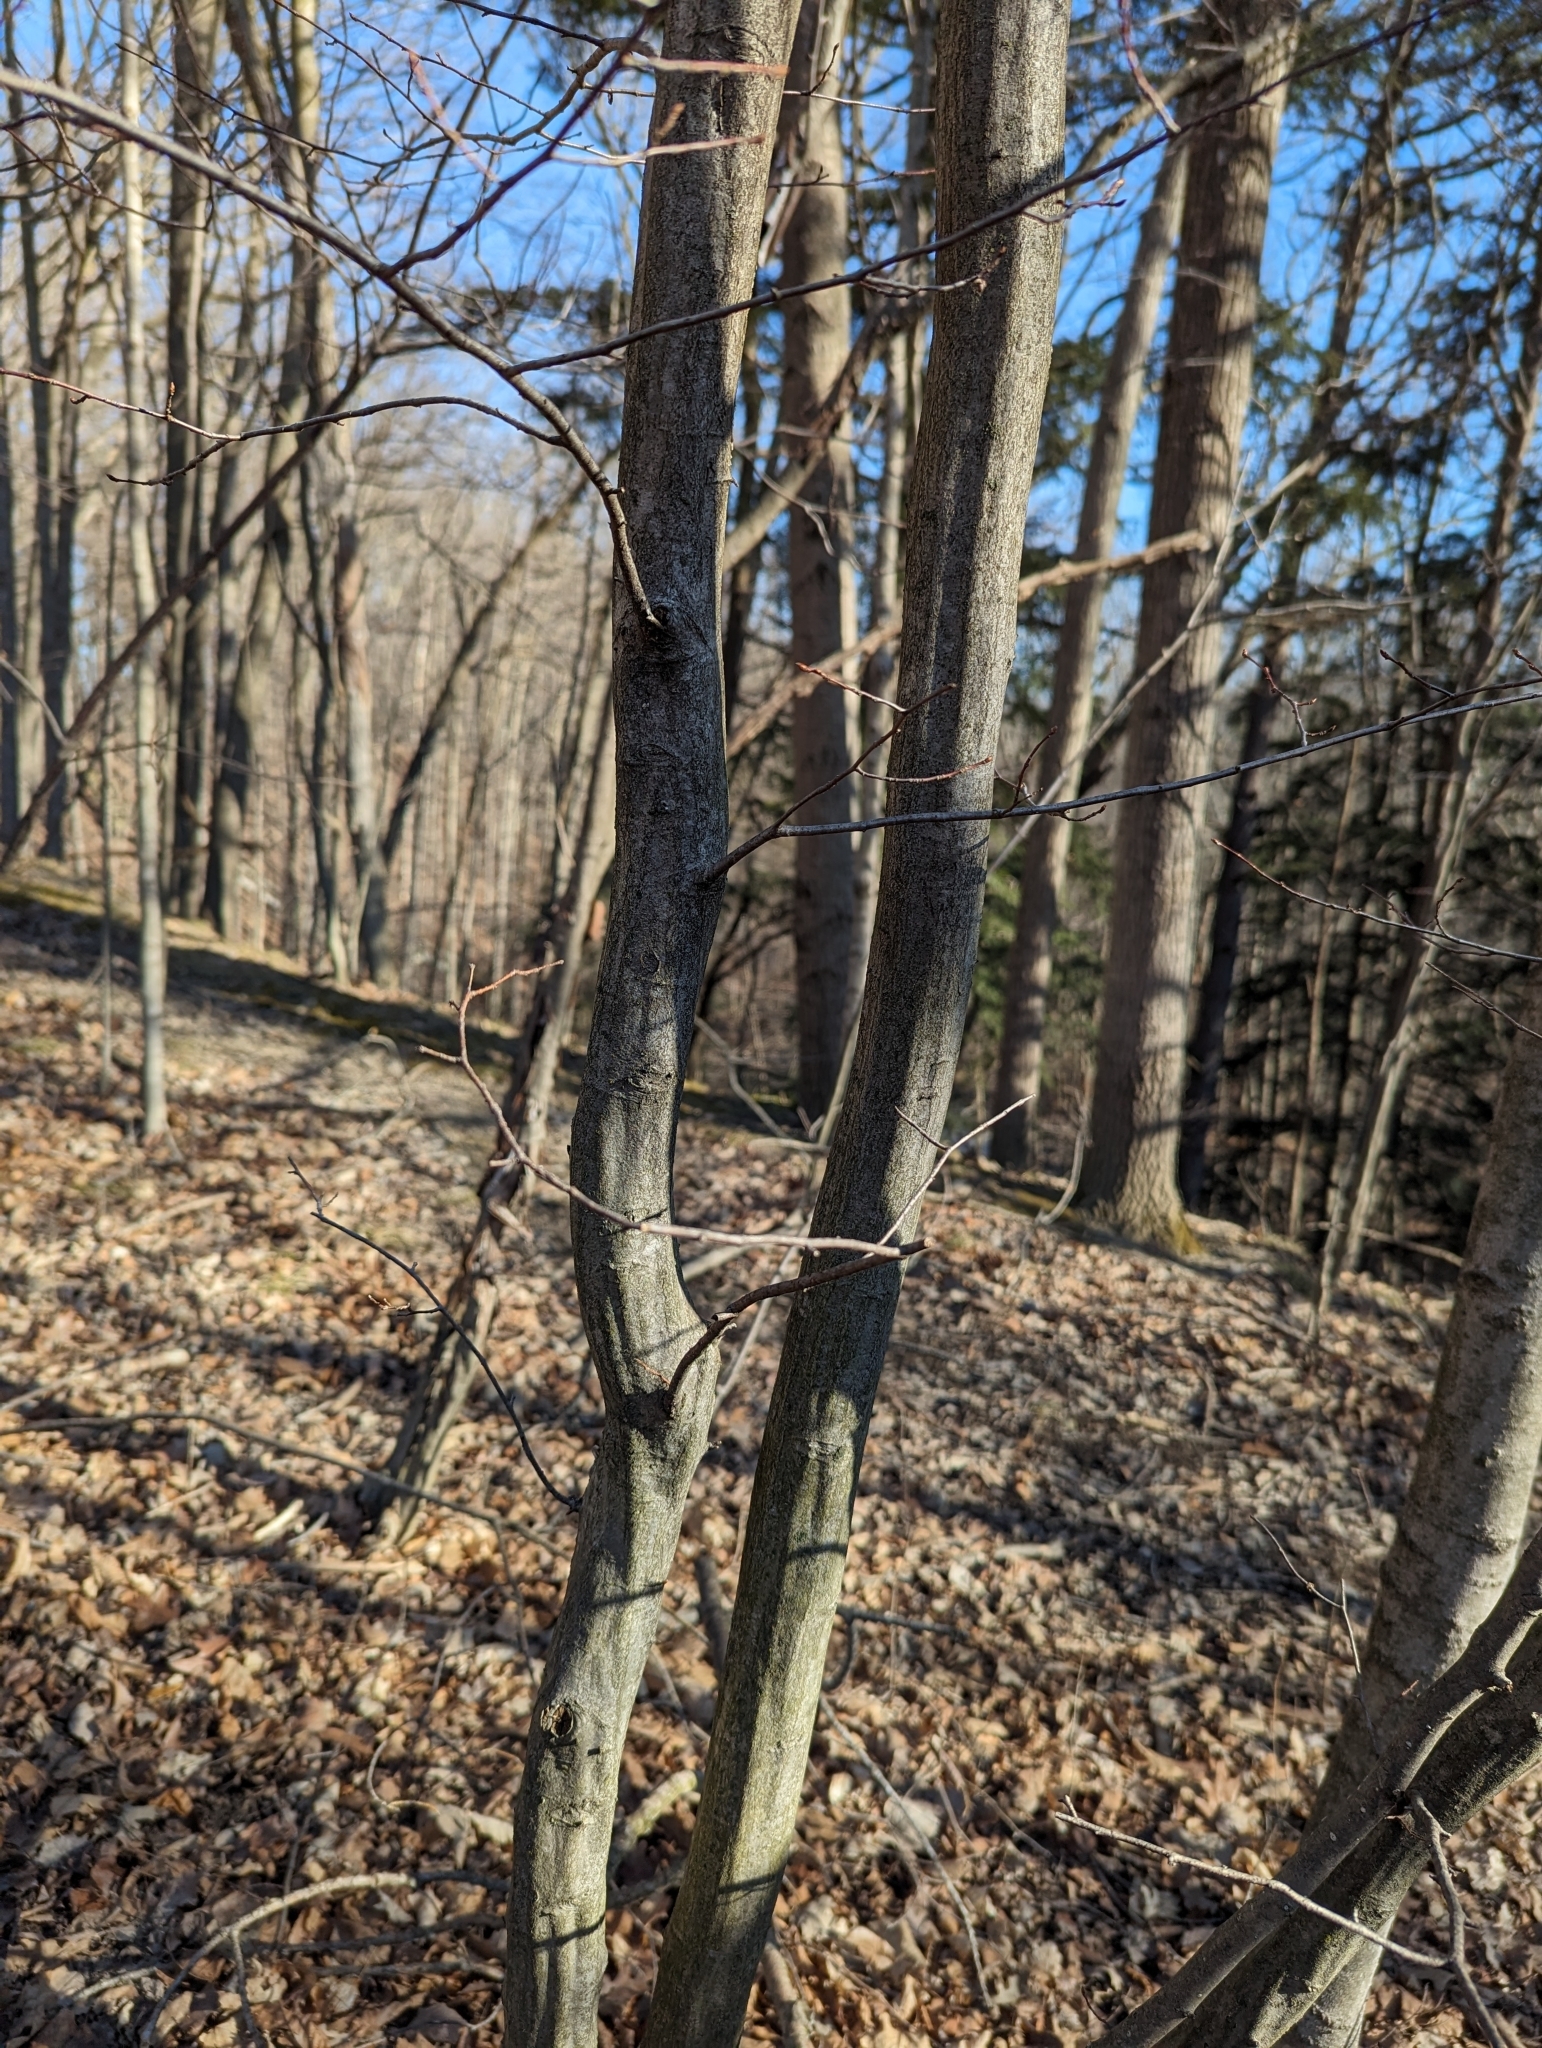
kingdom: Plantae
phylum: Tracheophyta
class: Magnoliopsida
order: Fagales
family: Betulaceae
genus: Carpinus
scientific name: Carpinus caroliniana
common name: American hornbeam
